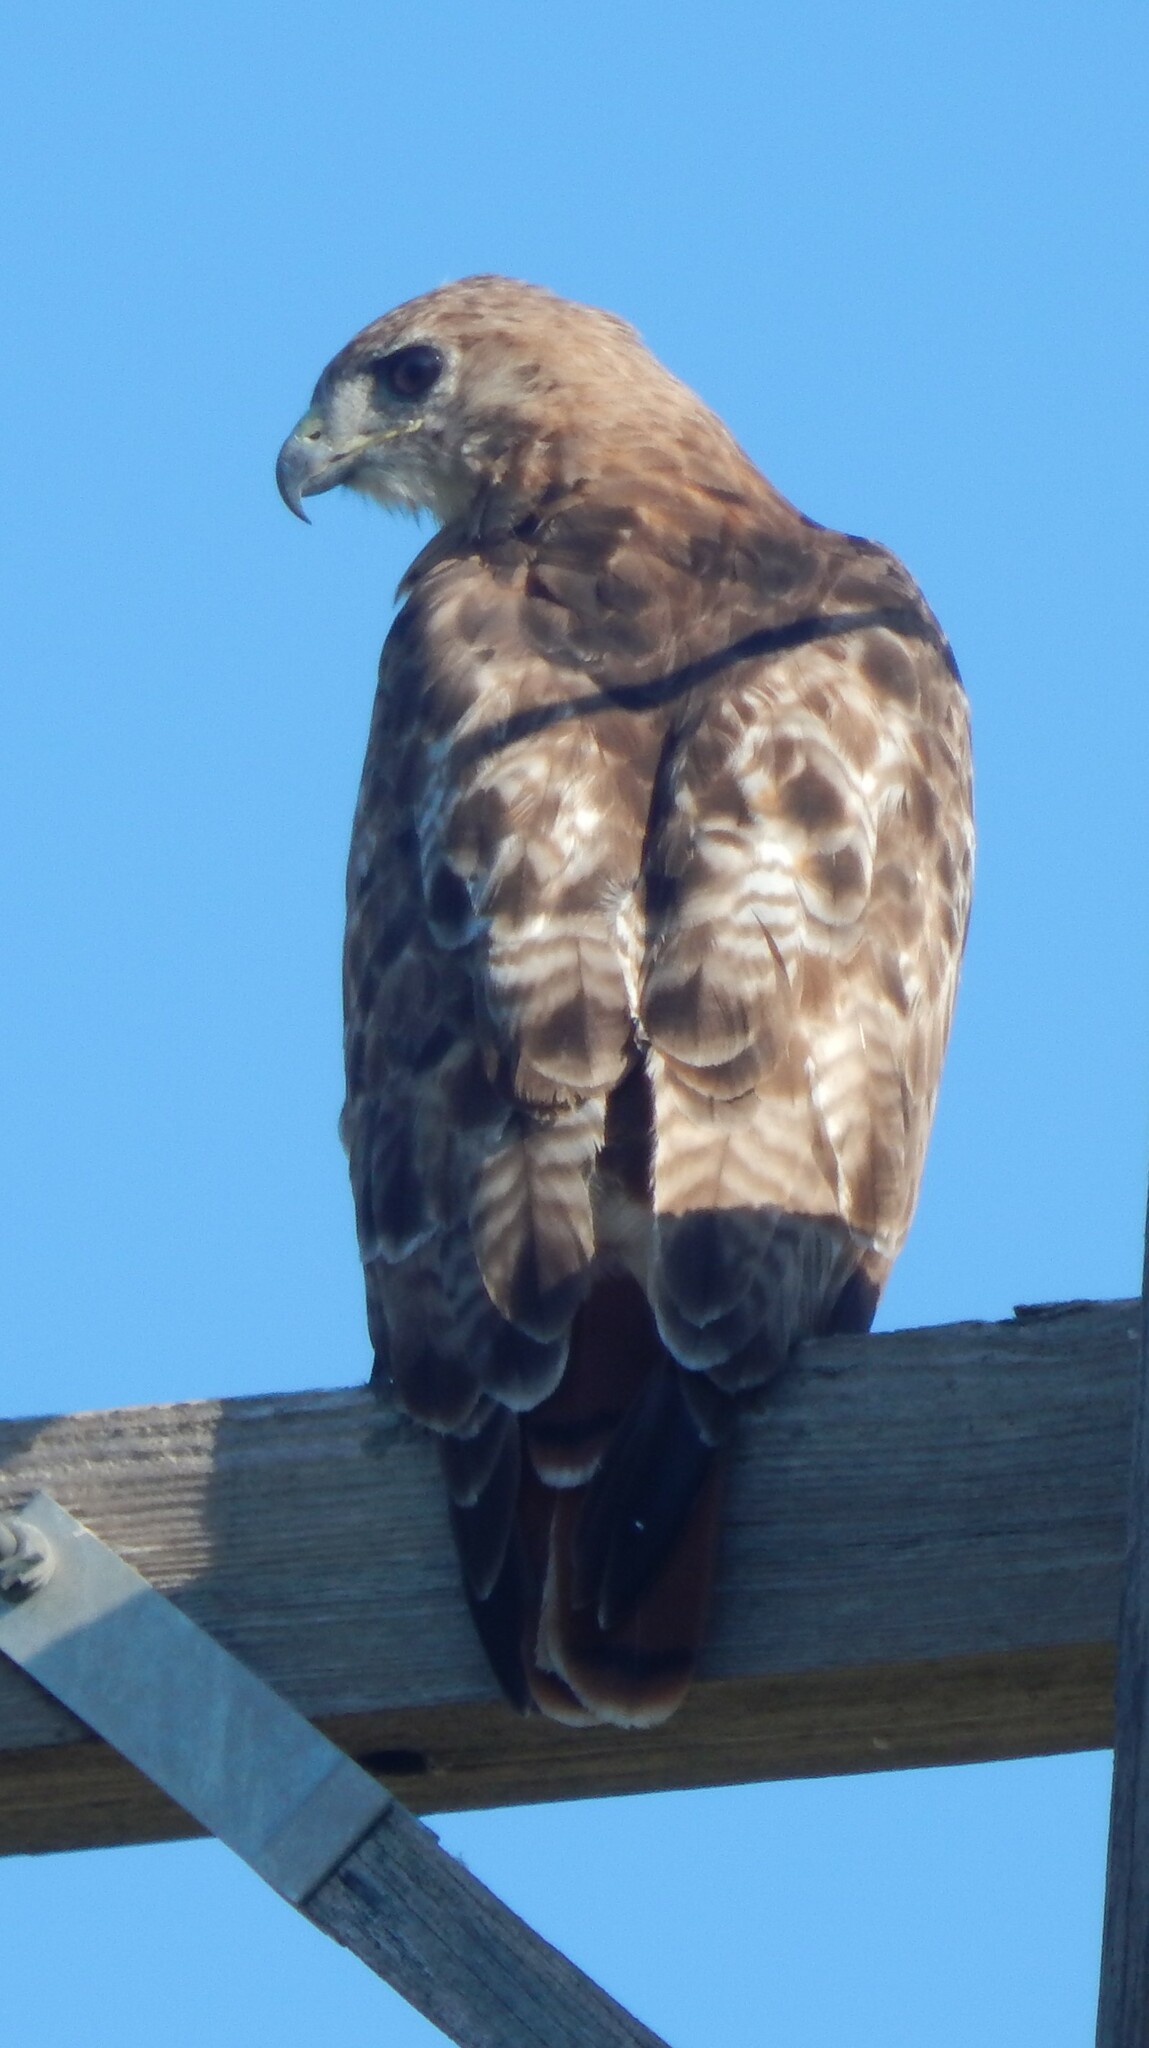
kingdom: Animalia
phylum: Chordata
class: Aves
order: Accipitriformes
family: Accipitridae
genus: Buteo
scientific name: Buteo jamaicensis
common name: Red-tailed hawk
